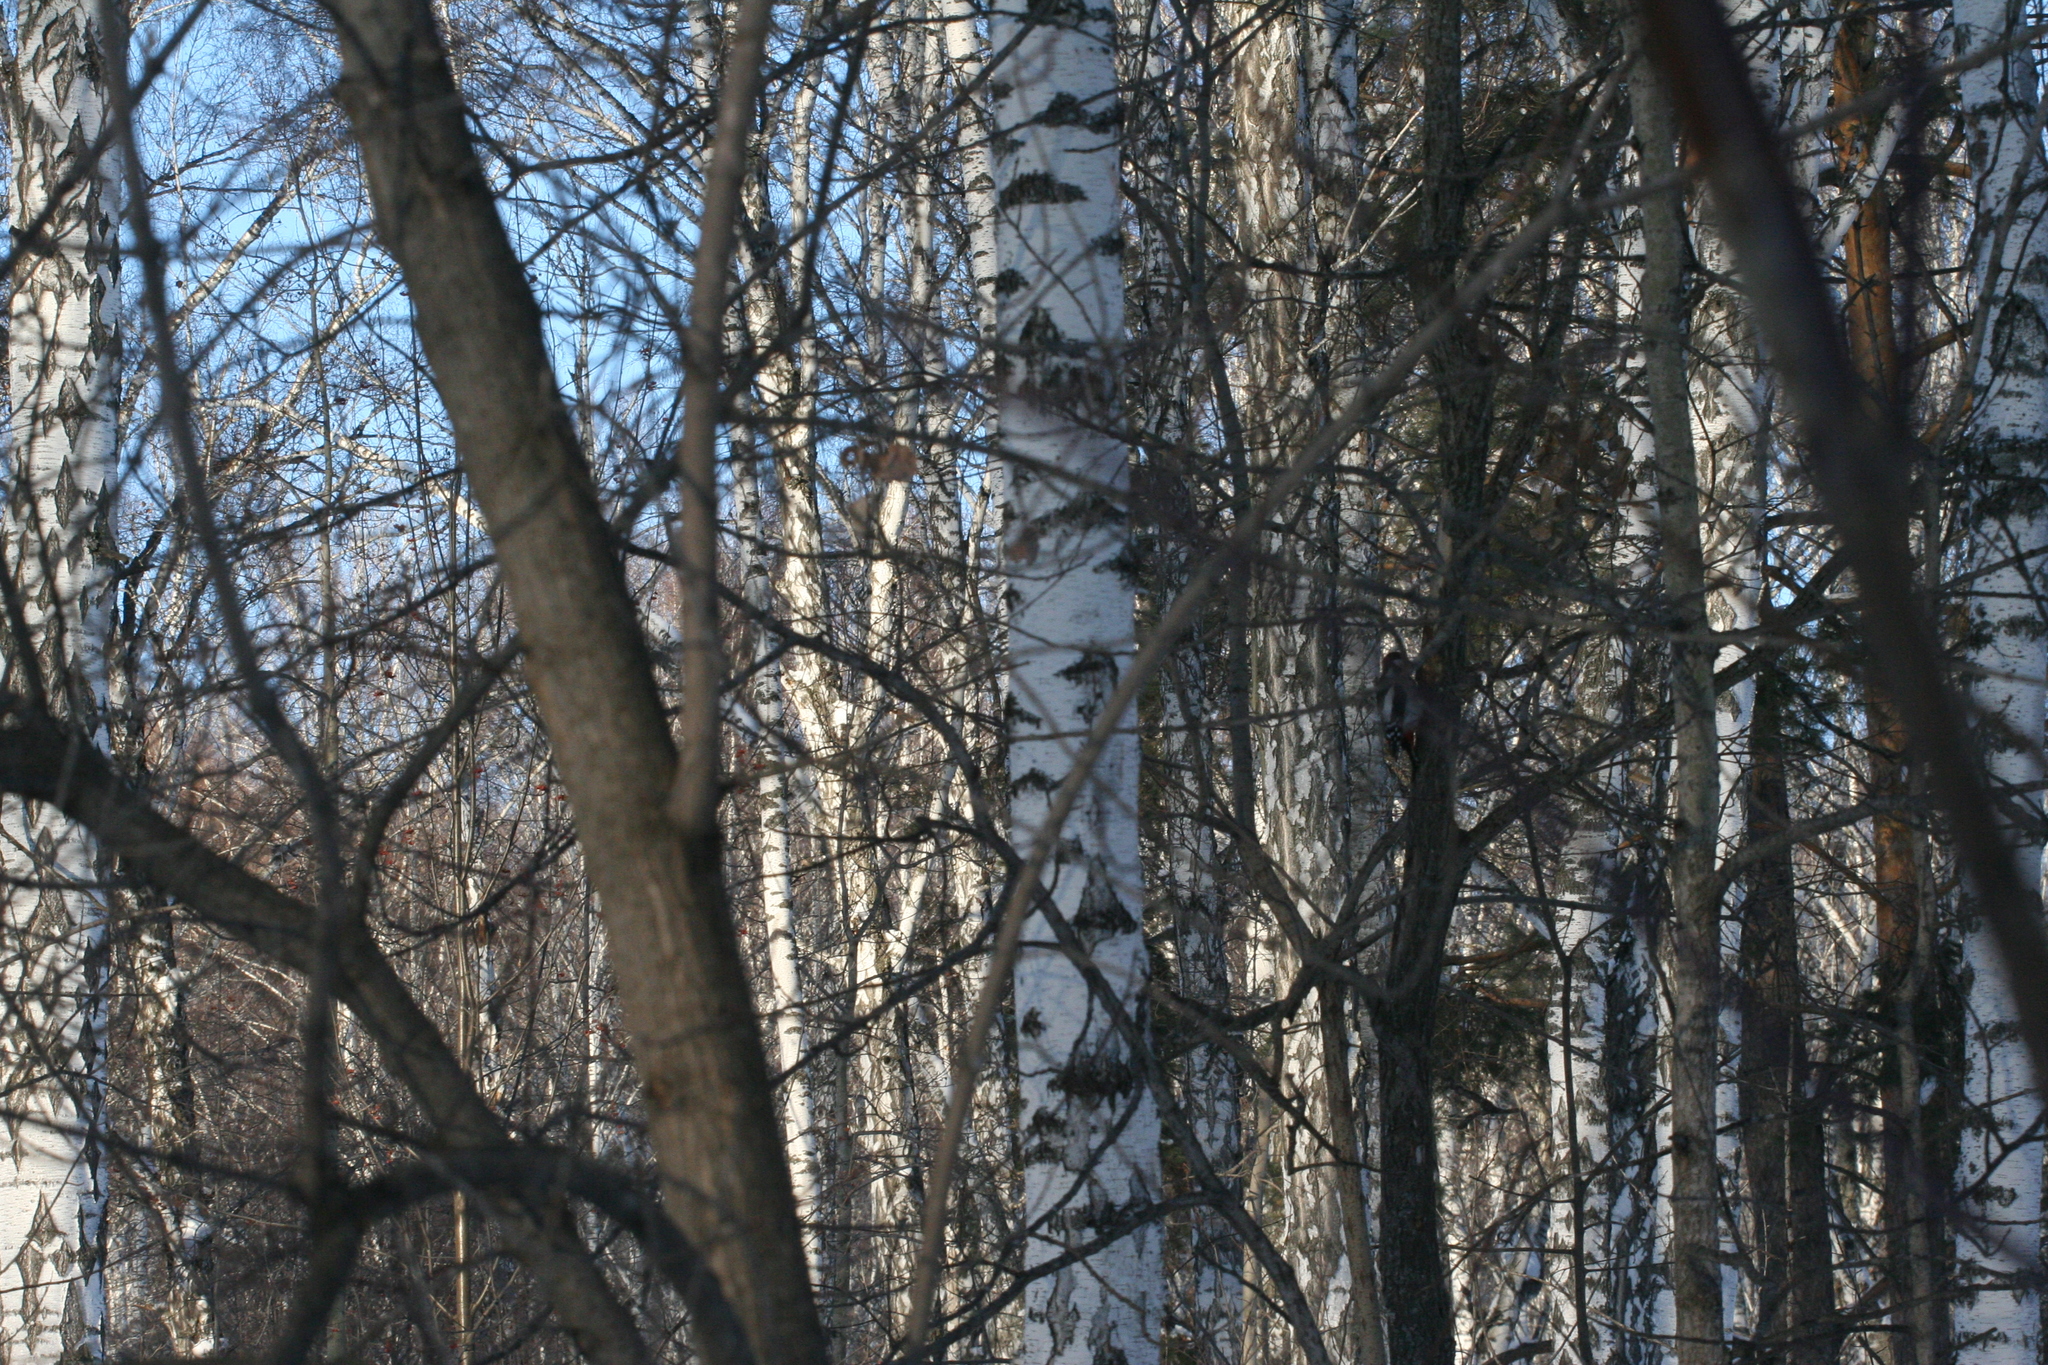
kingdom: Animalia
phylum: Chordata
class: Aves
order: Piciformes
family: Picidae
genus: Dendrocopos
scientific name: Dendrocopos major
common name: Great spotted woodpecker
